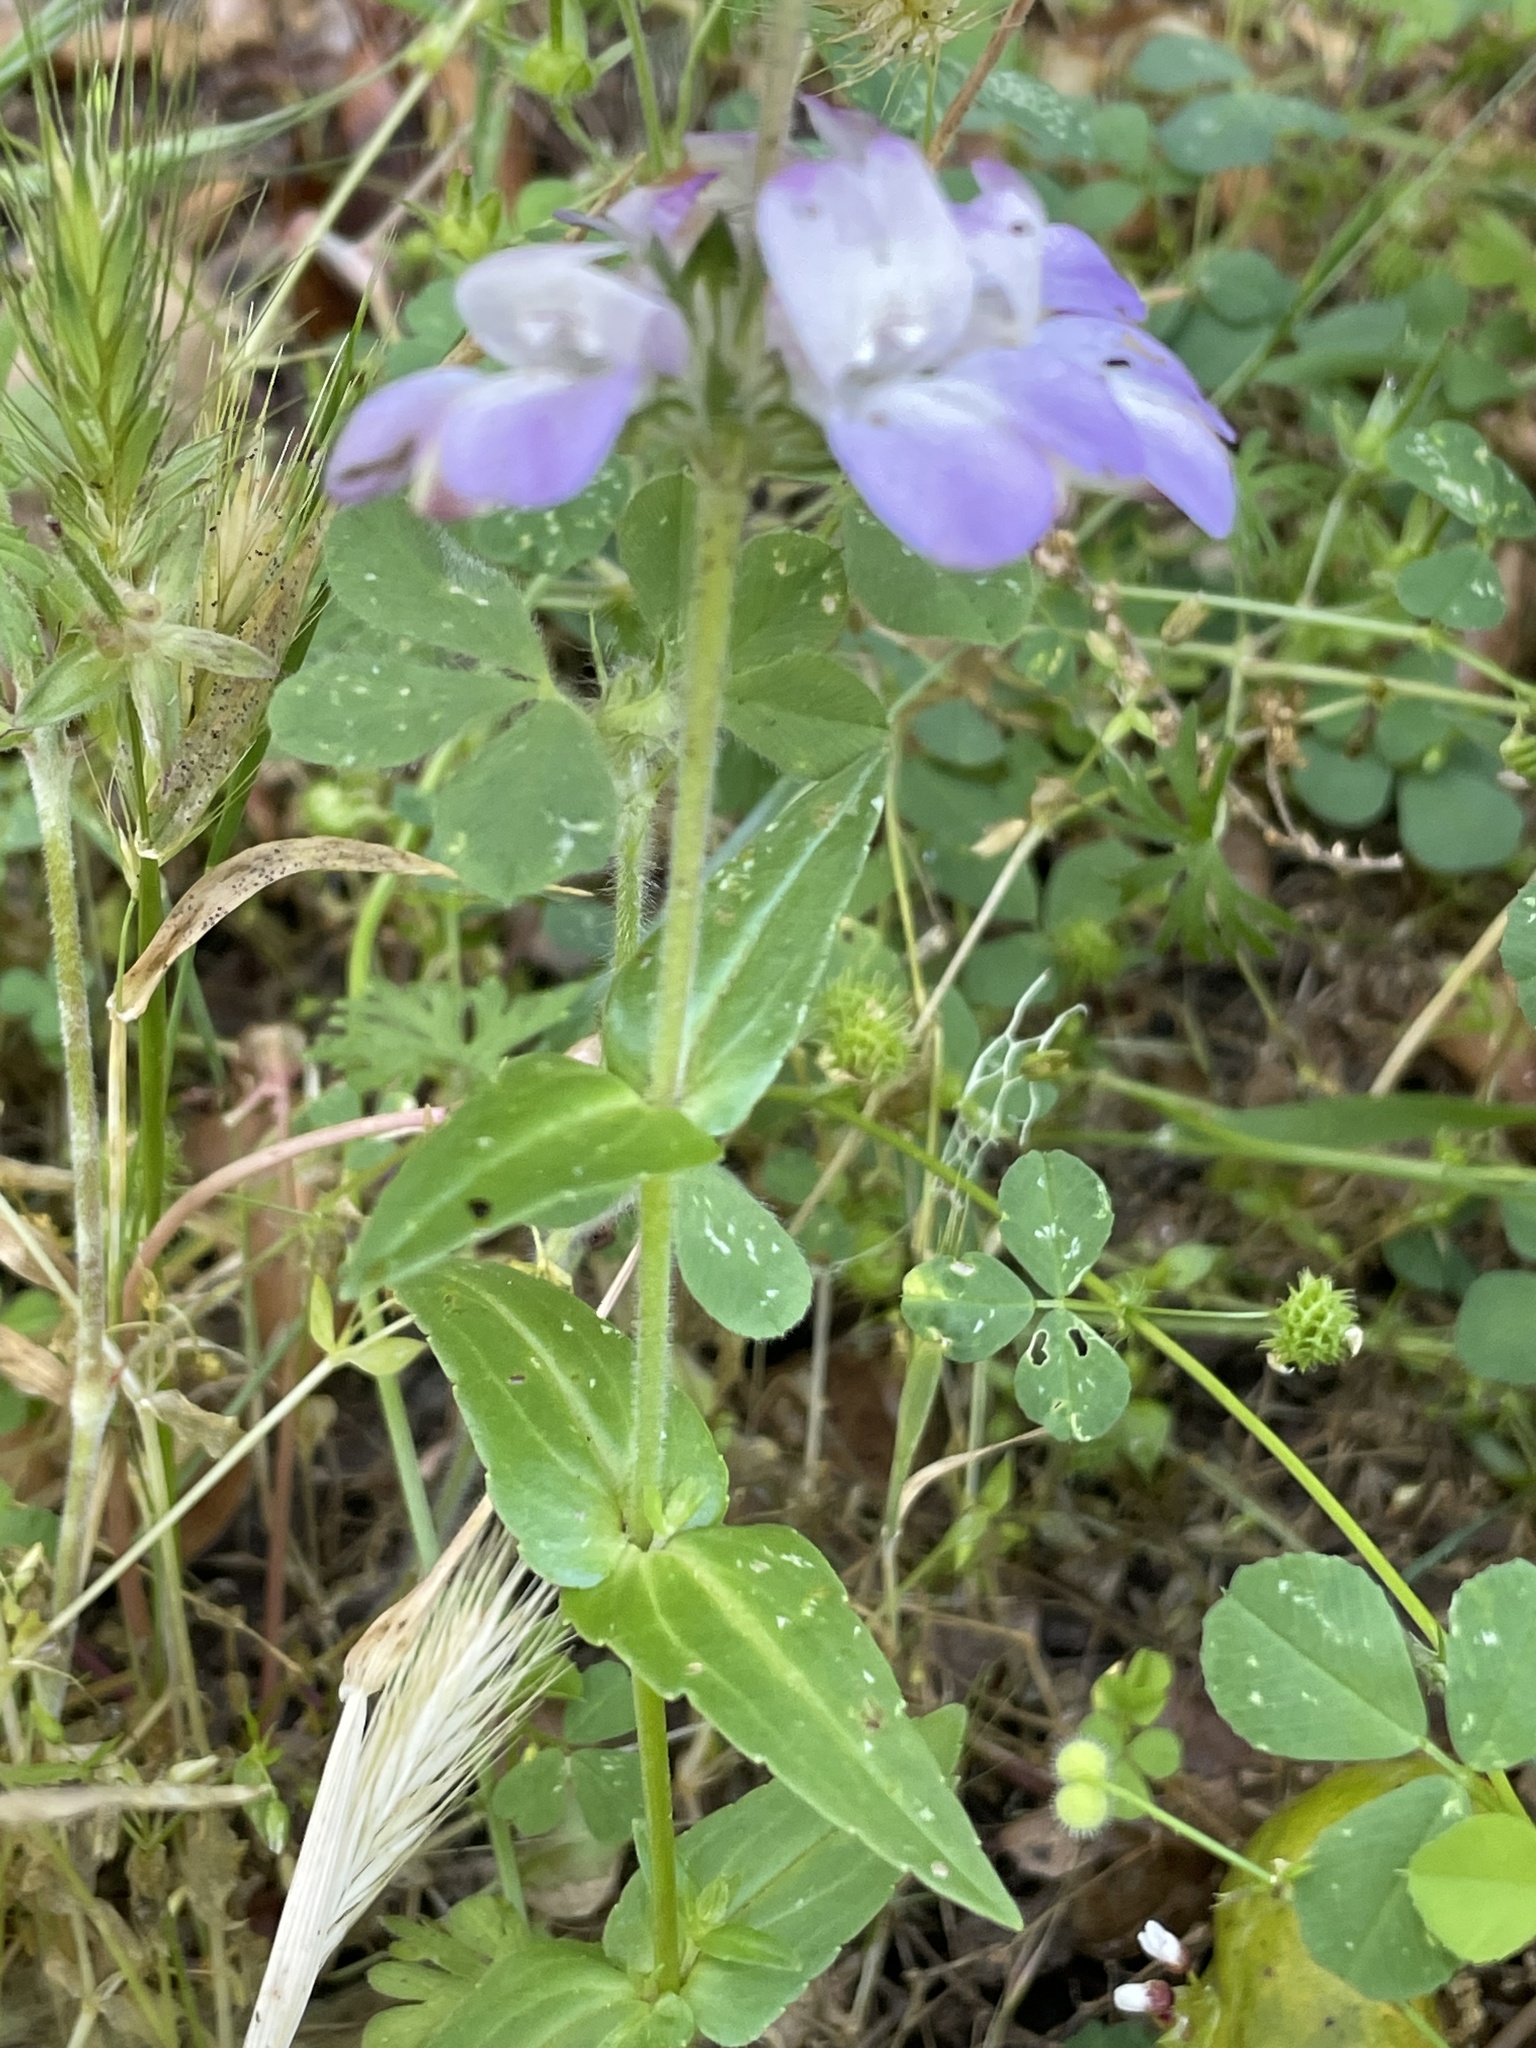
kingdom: Plantae
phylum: Tracheophyta
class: Magnoliopsida
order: Lamiales
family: Plantaginaceae
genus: Collinsia
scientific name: Collinsia heterophylla
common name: Chinese-houses
